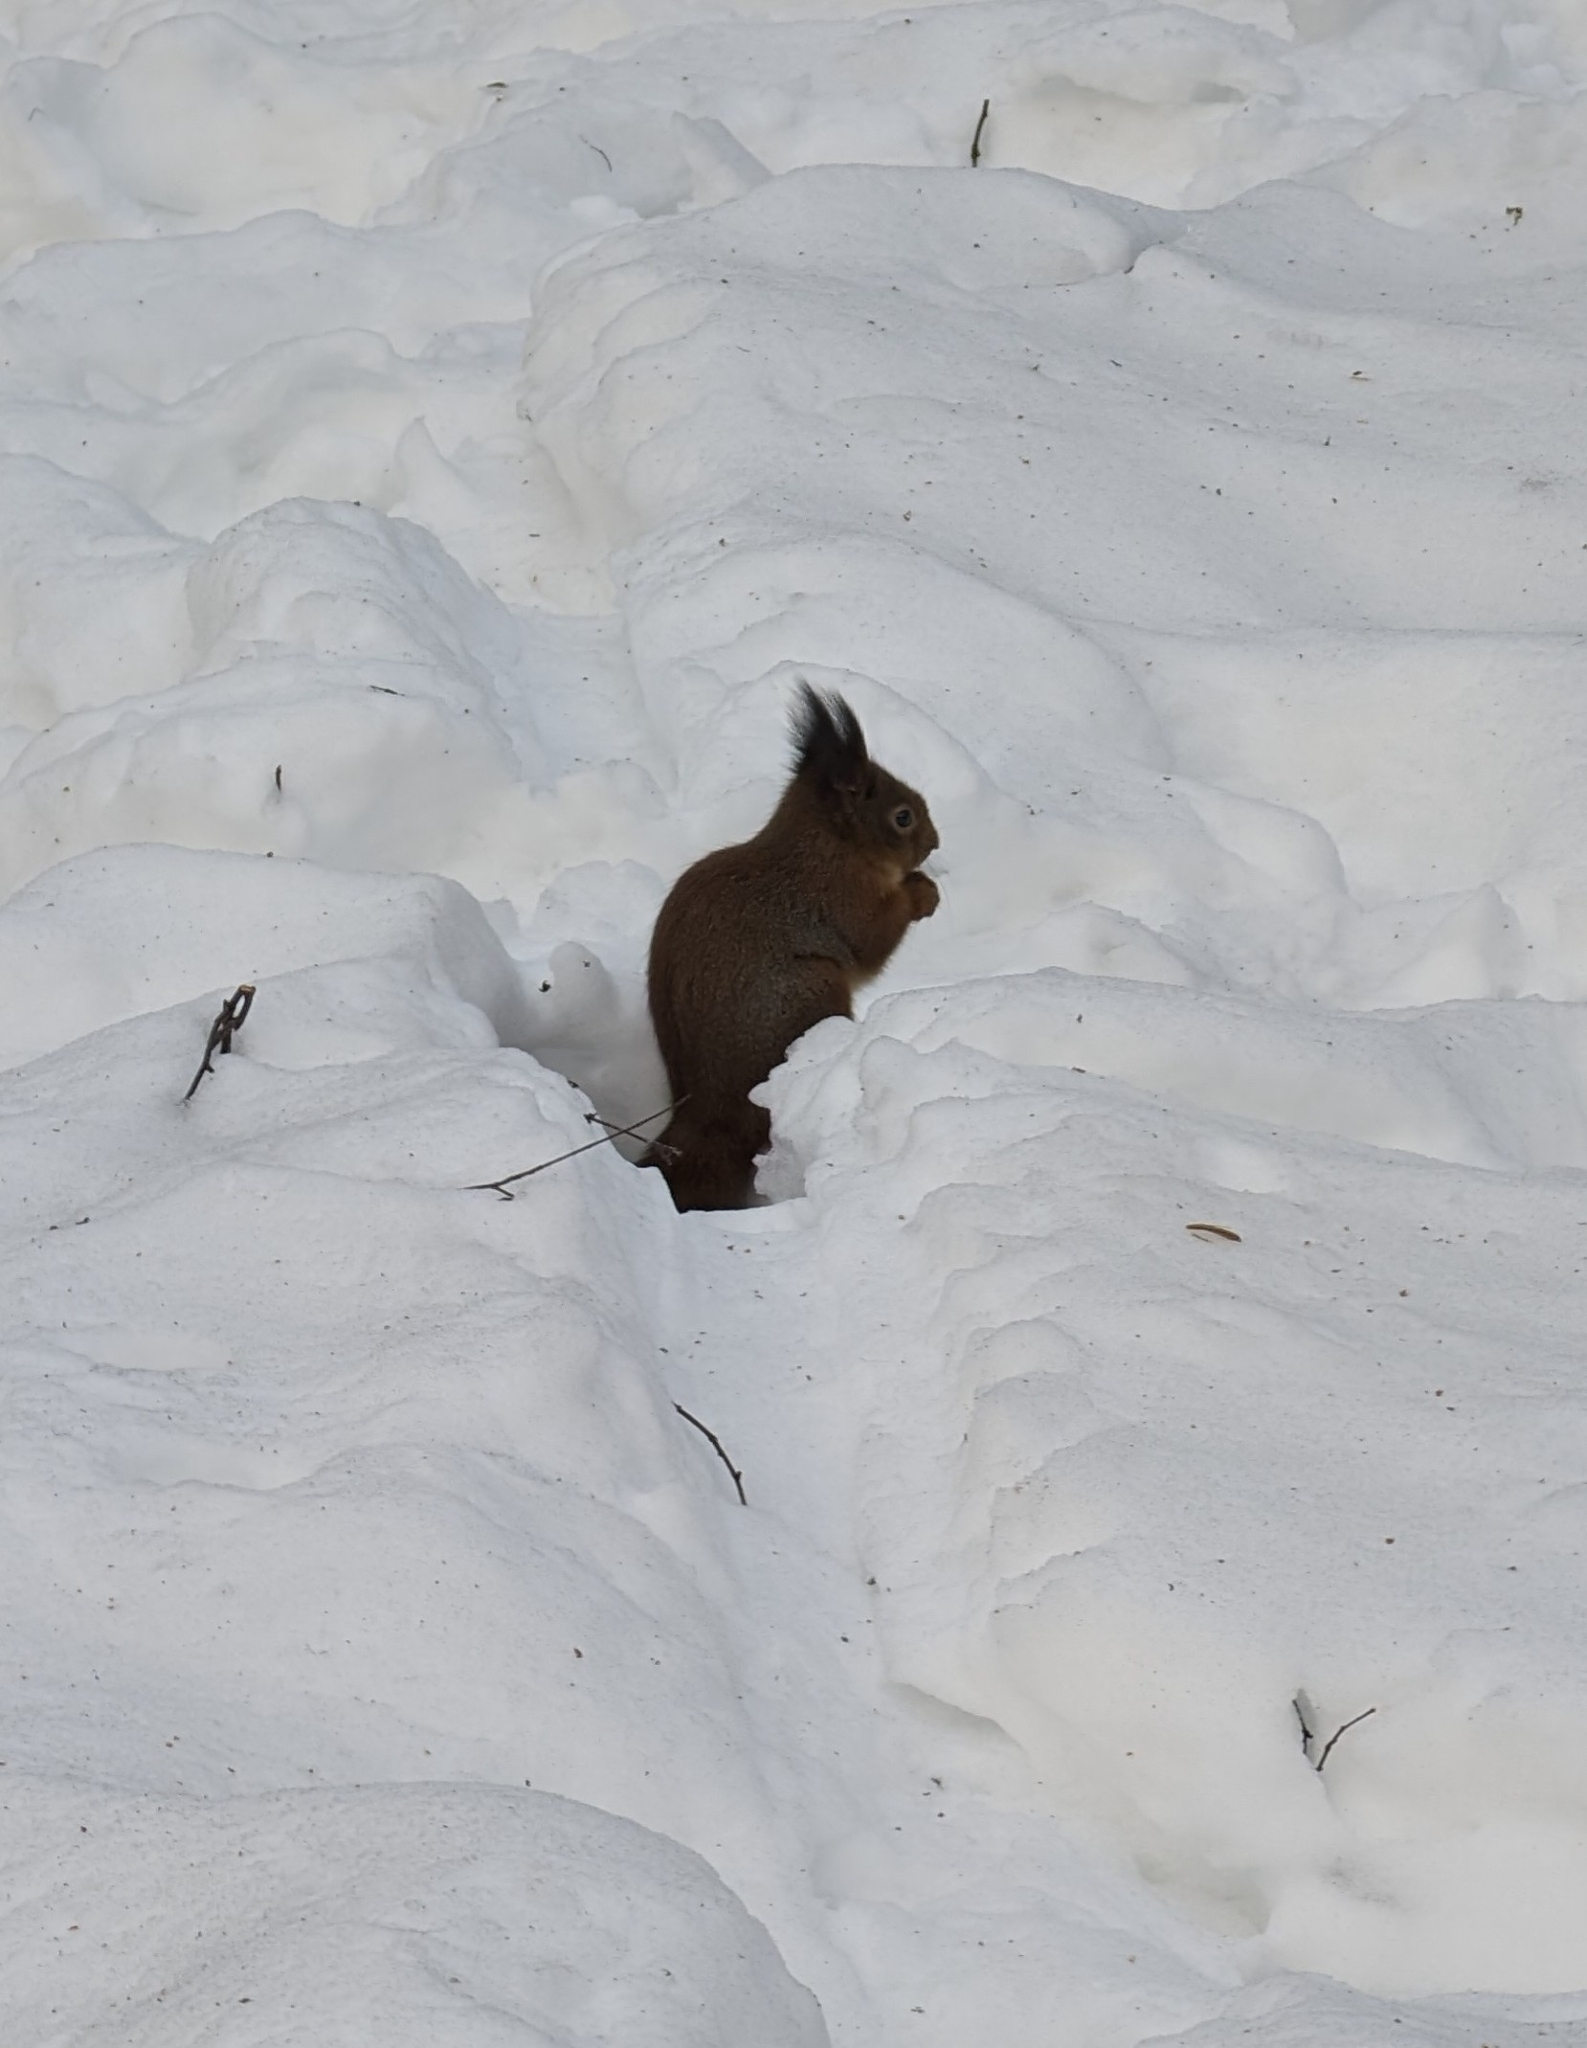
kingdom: Animalia
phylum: Chordata
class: Mammalia
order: Rodentia
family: Sciuridae
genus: Sciurus
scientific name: Sciurus vulgaris
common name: Eurasian red squirrel
